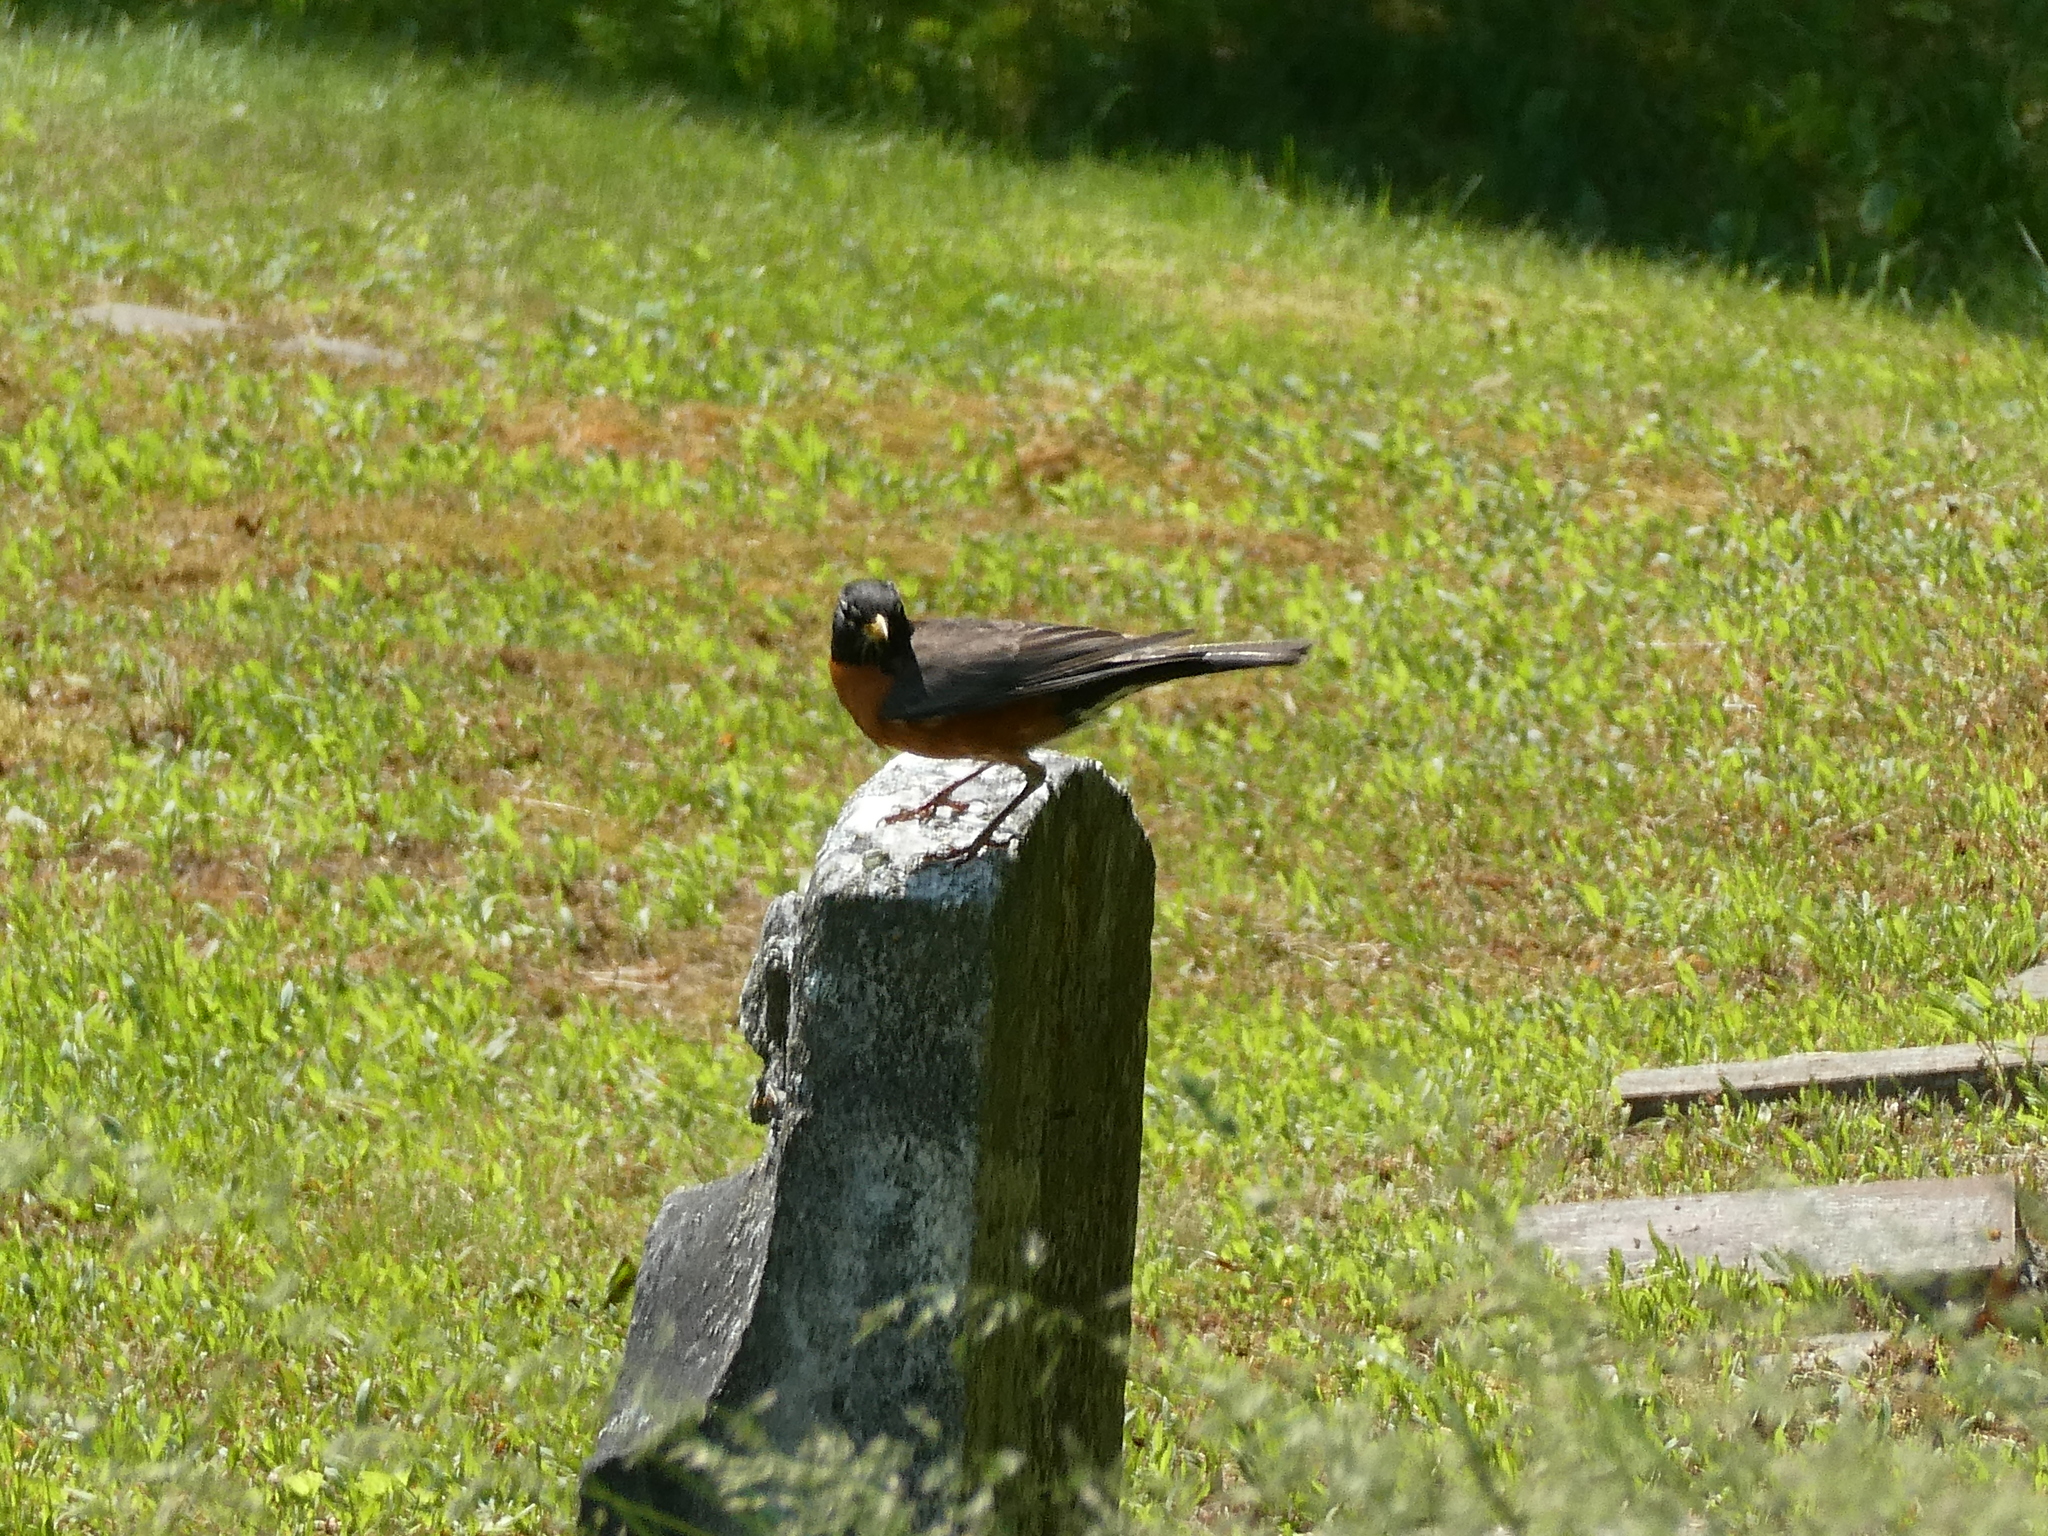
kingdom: Animalia
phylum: Chordata
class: Aves
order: Passeriformes
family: Turdidae
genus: Turdus
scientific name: Turdus migratorius
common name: American robin
